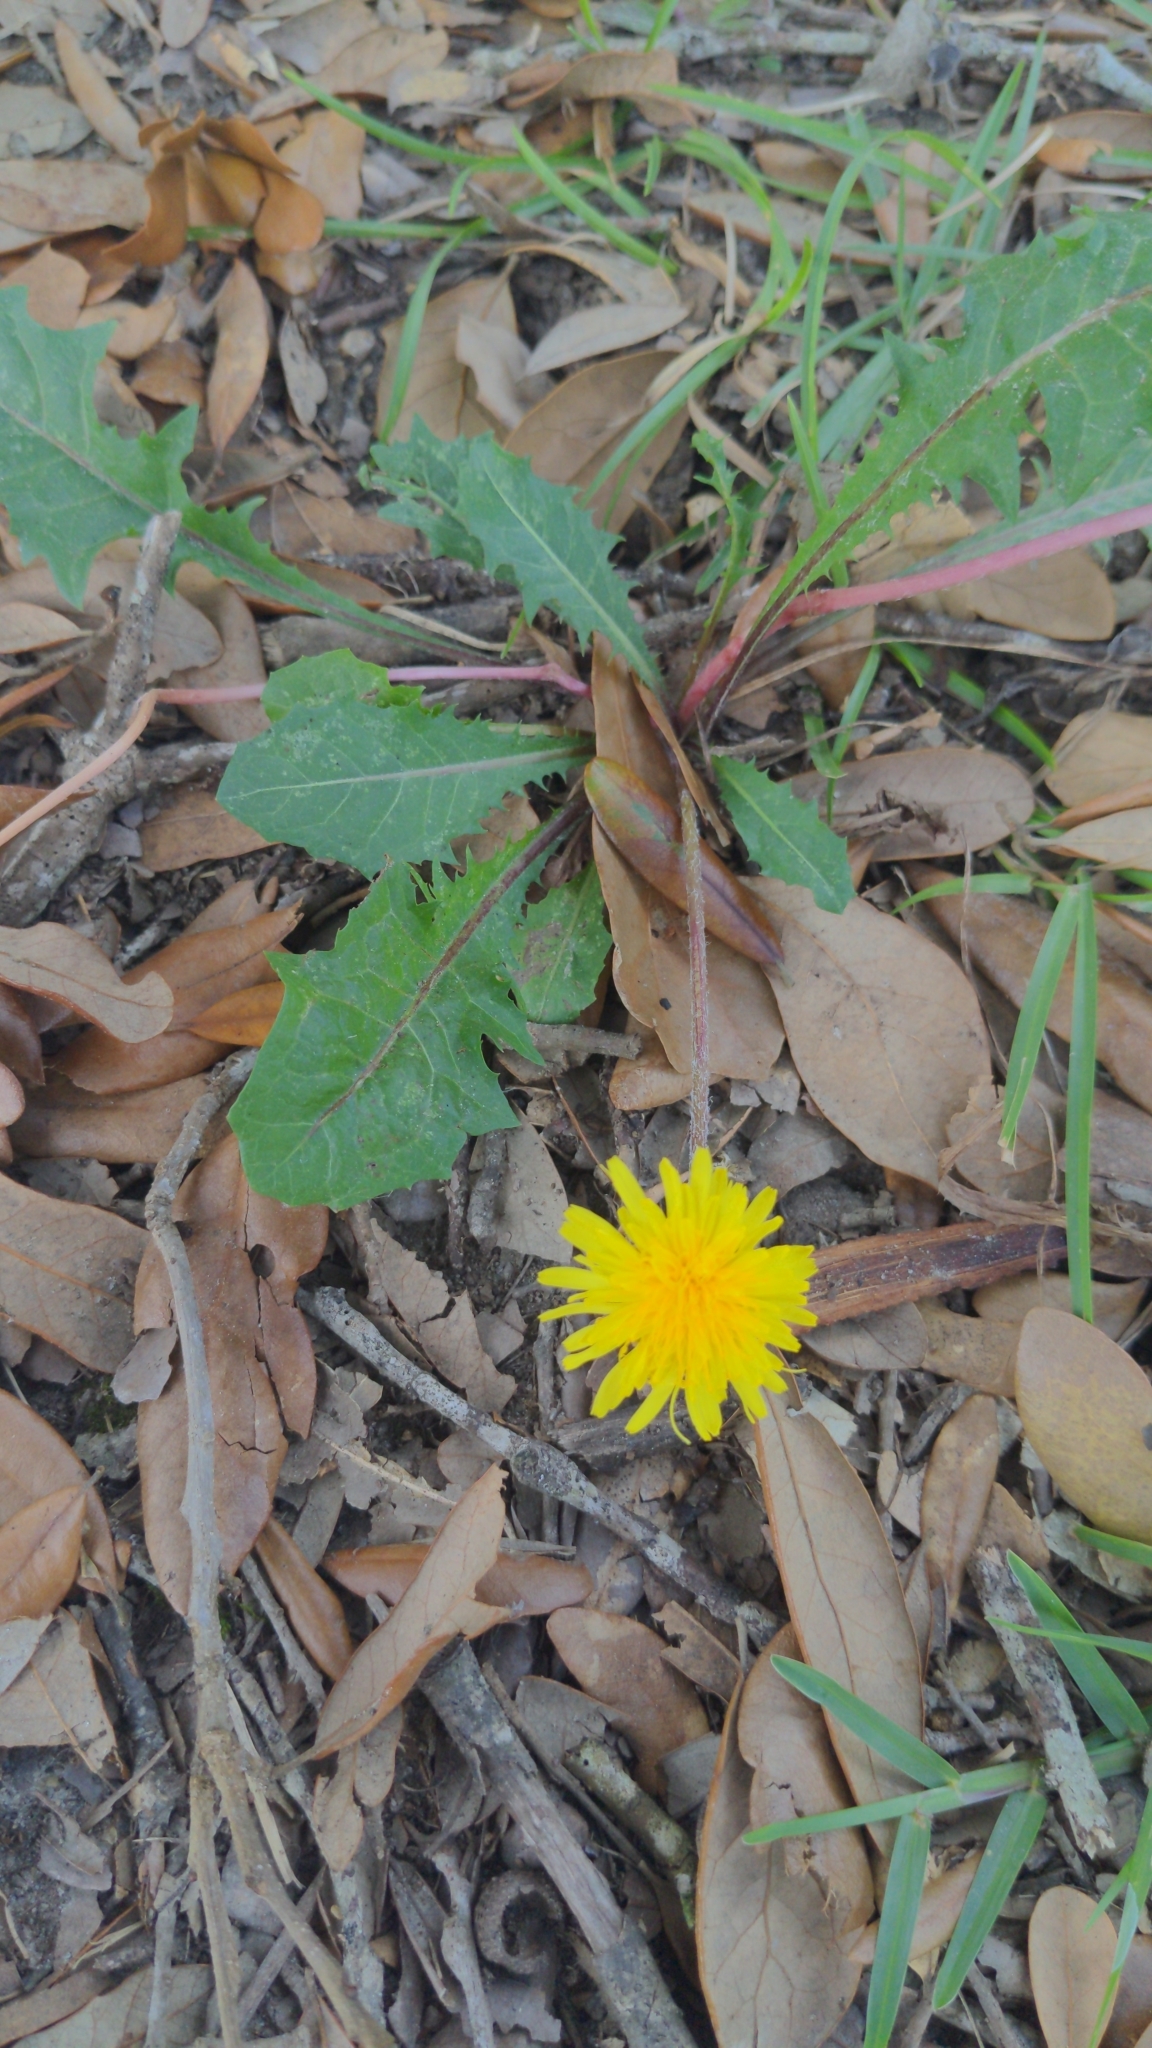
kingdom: Plantae
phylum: Tracheophyta
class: Magnoliopsida
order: Asterales
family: Asteraceae
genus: Taraxacum
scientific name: Taraxacum
